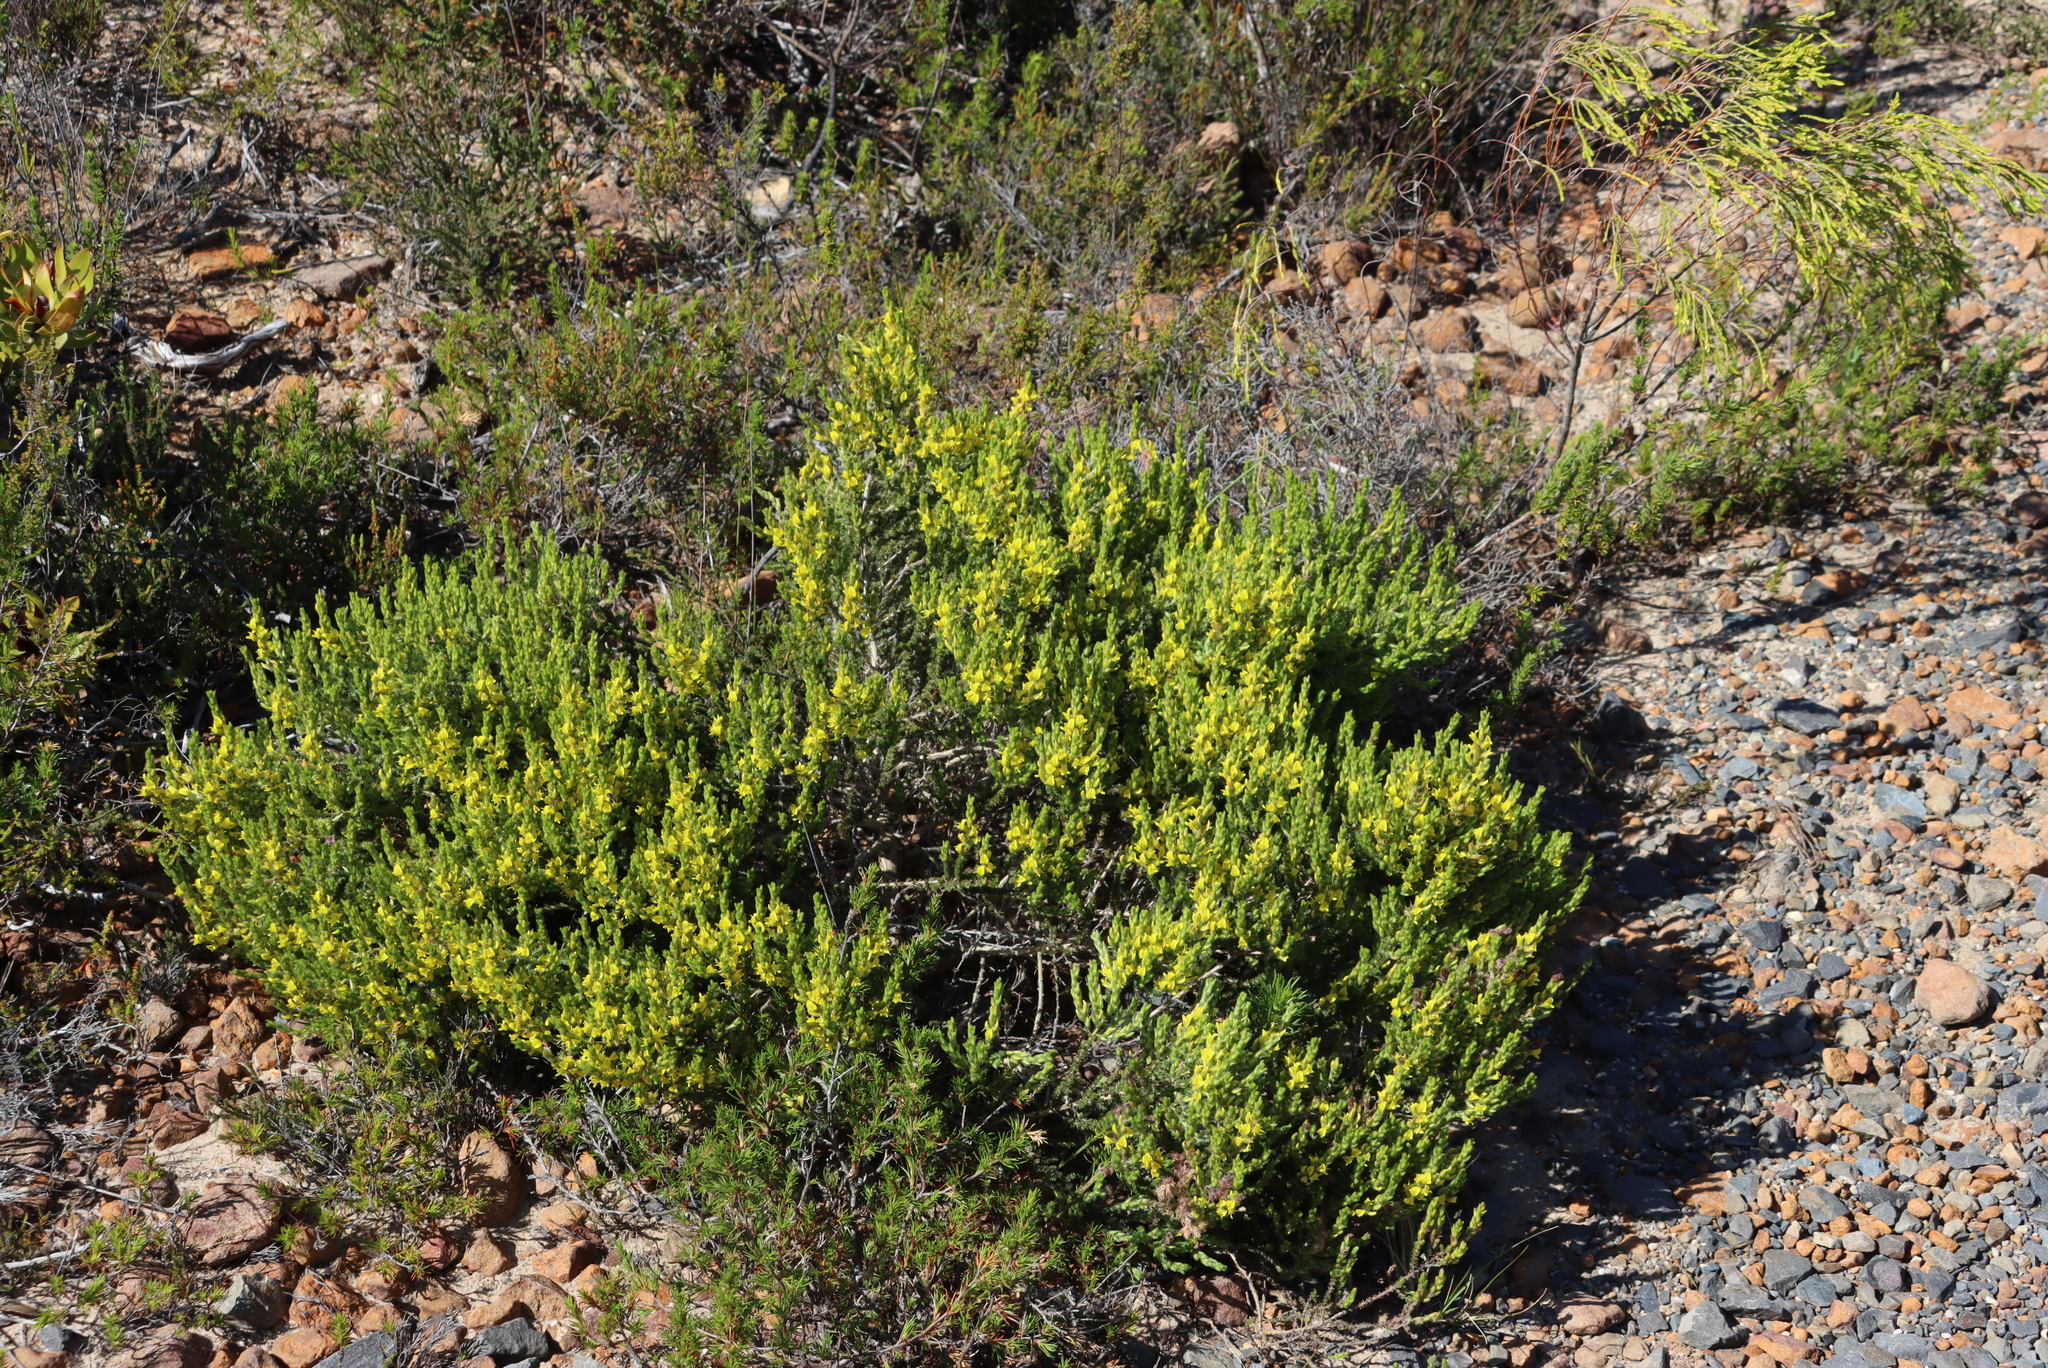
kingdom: Plantae
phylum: Tracheophyta
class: Magnoliopsida
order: Fabales
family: Fabaceae
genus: Aspalathus
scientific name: Aspalathus ericifolia
